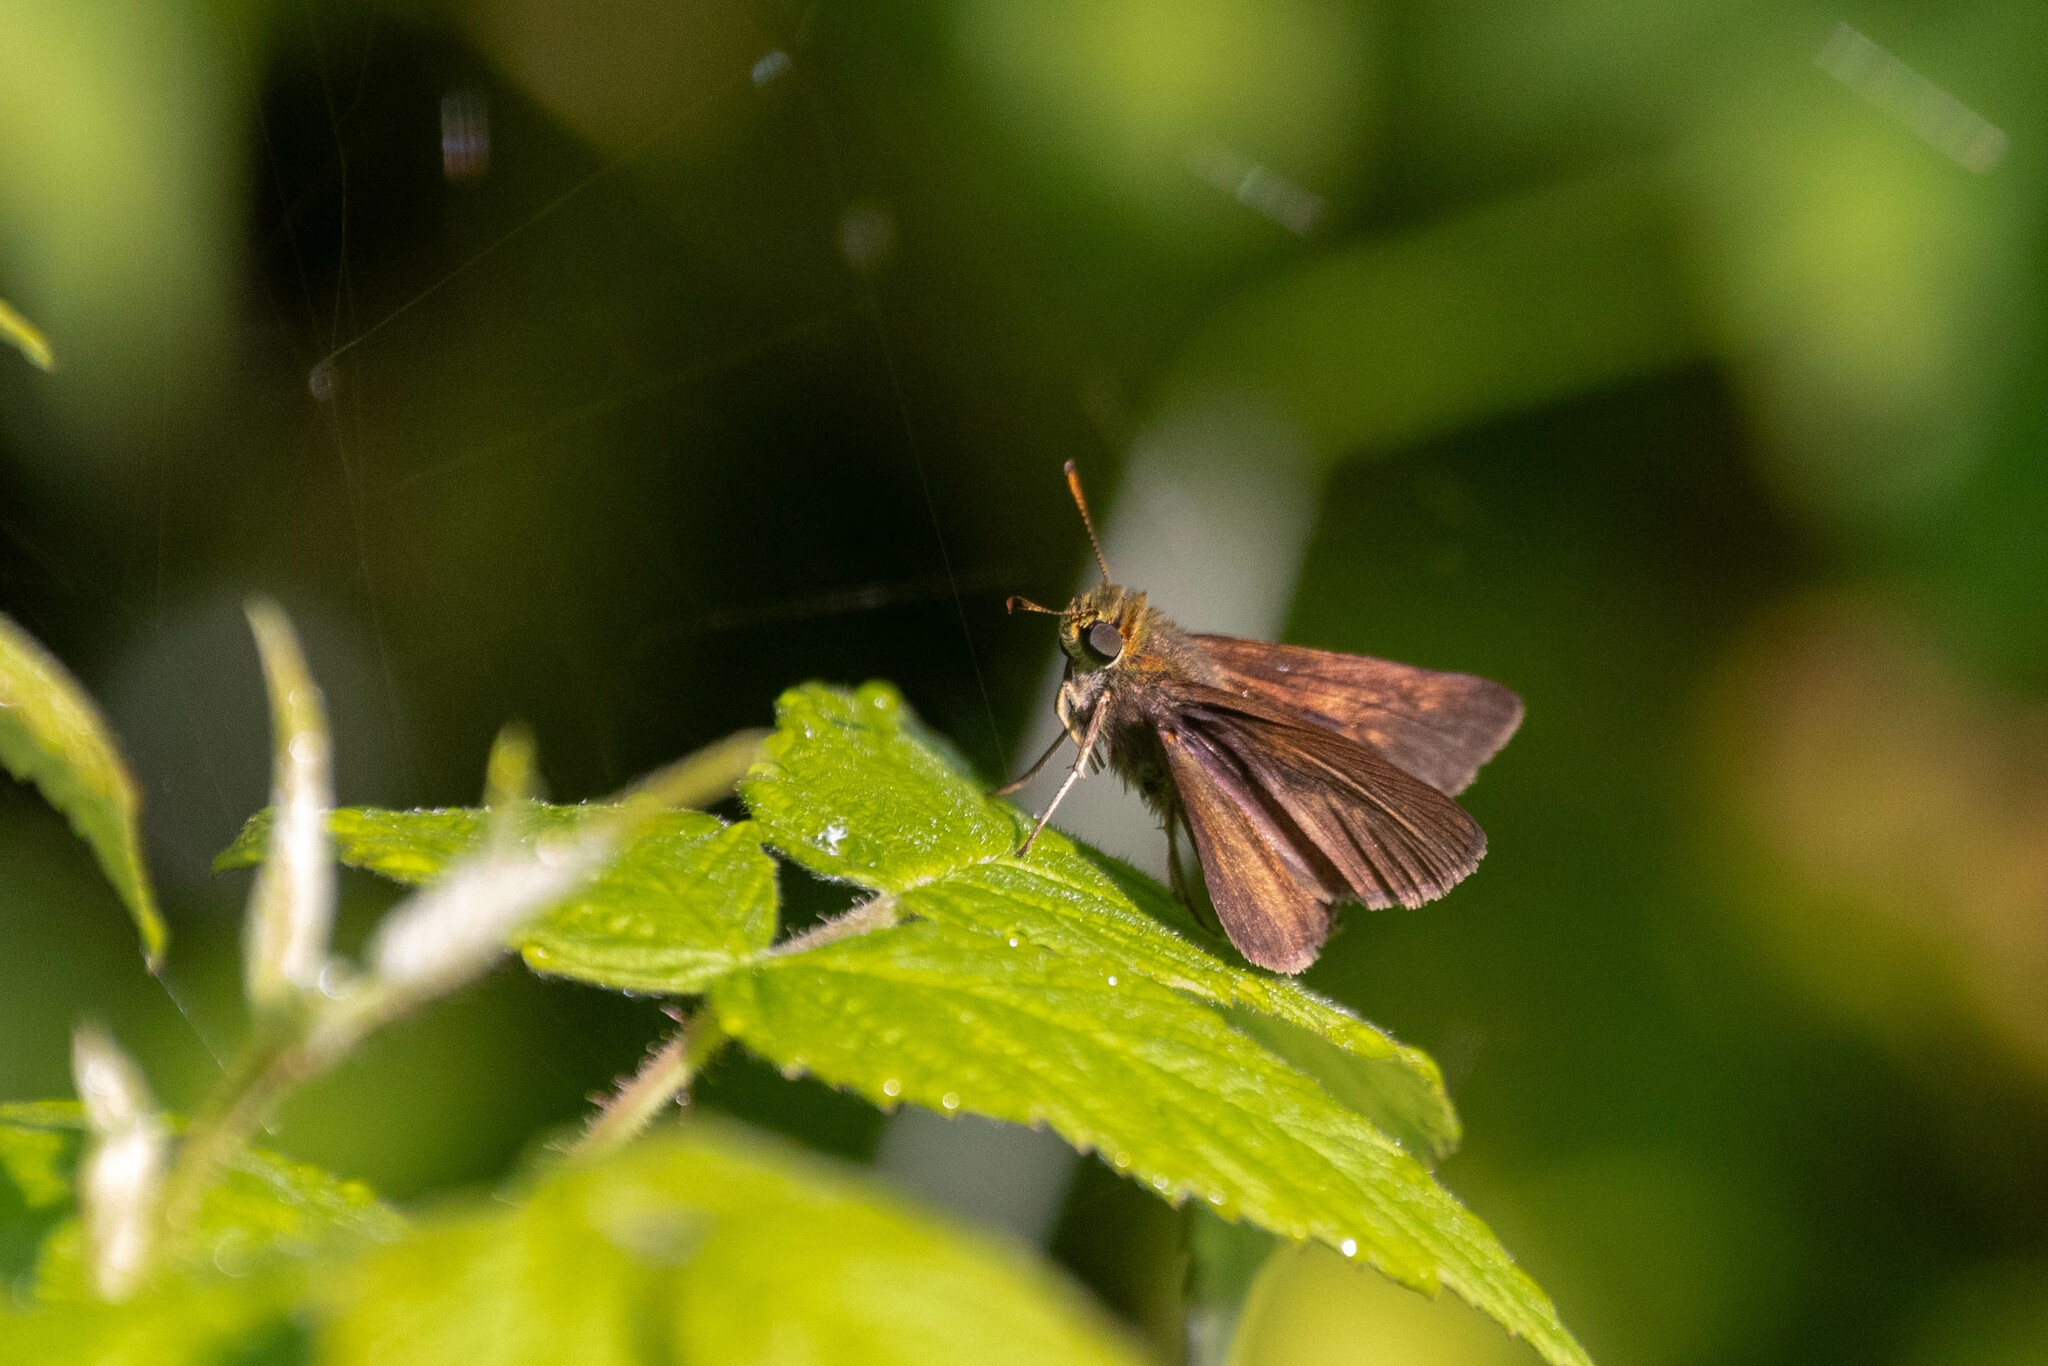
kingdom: Animalia
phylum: Arthropoda
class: Insecta
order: Lepidoptera
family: Hesperiidae
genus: Euphyes
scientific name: Euphyes vestris
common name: Dun skipper
